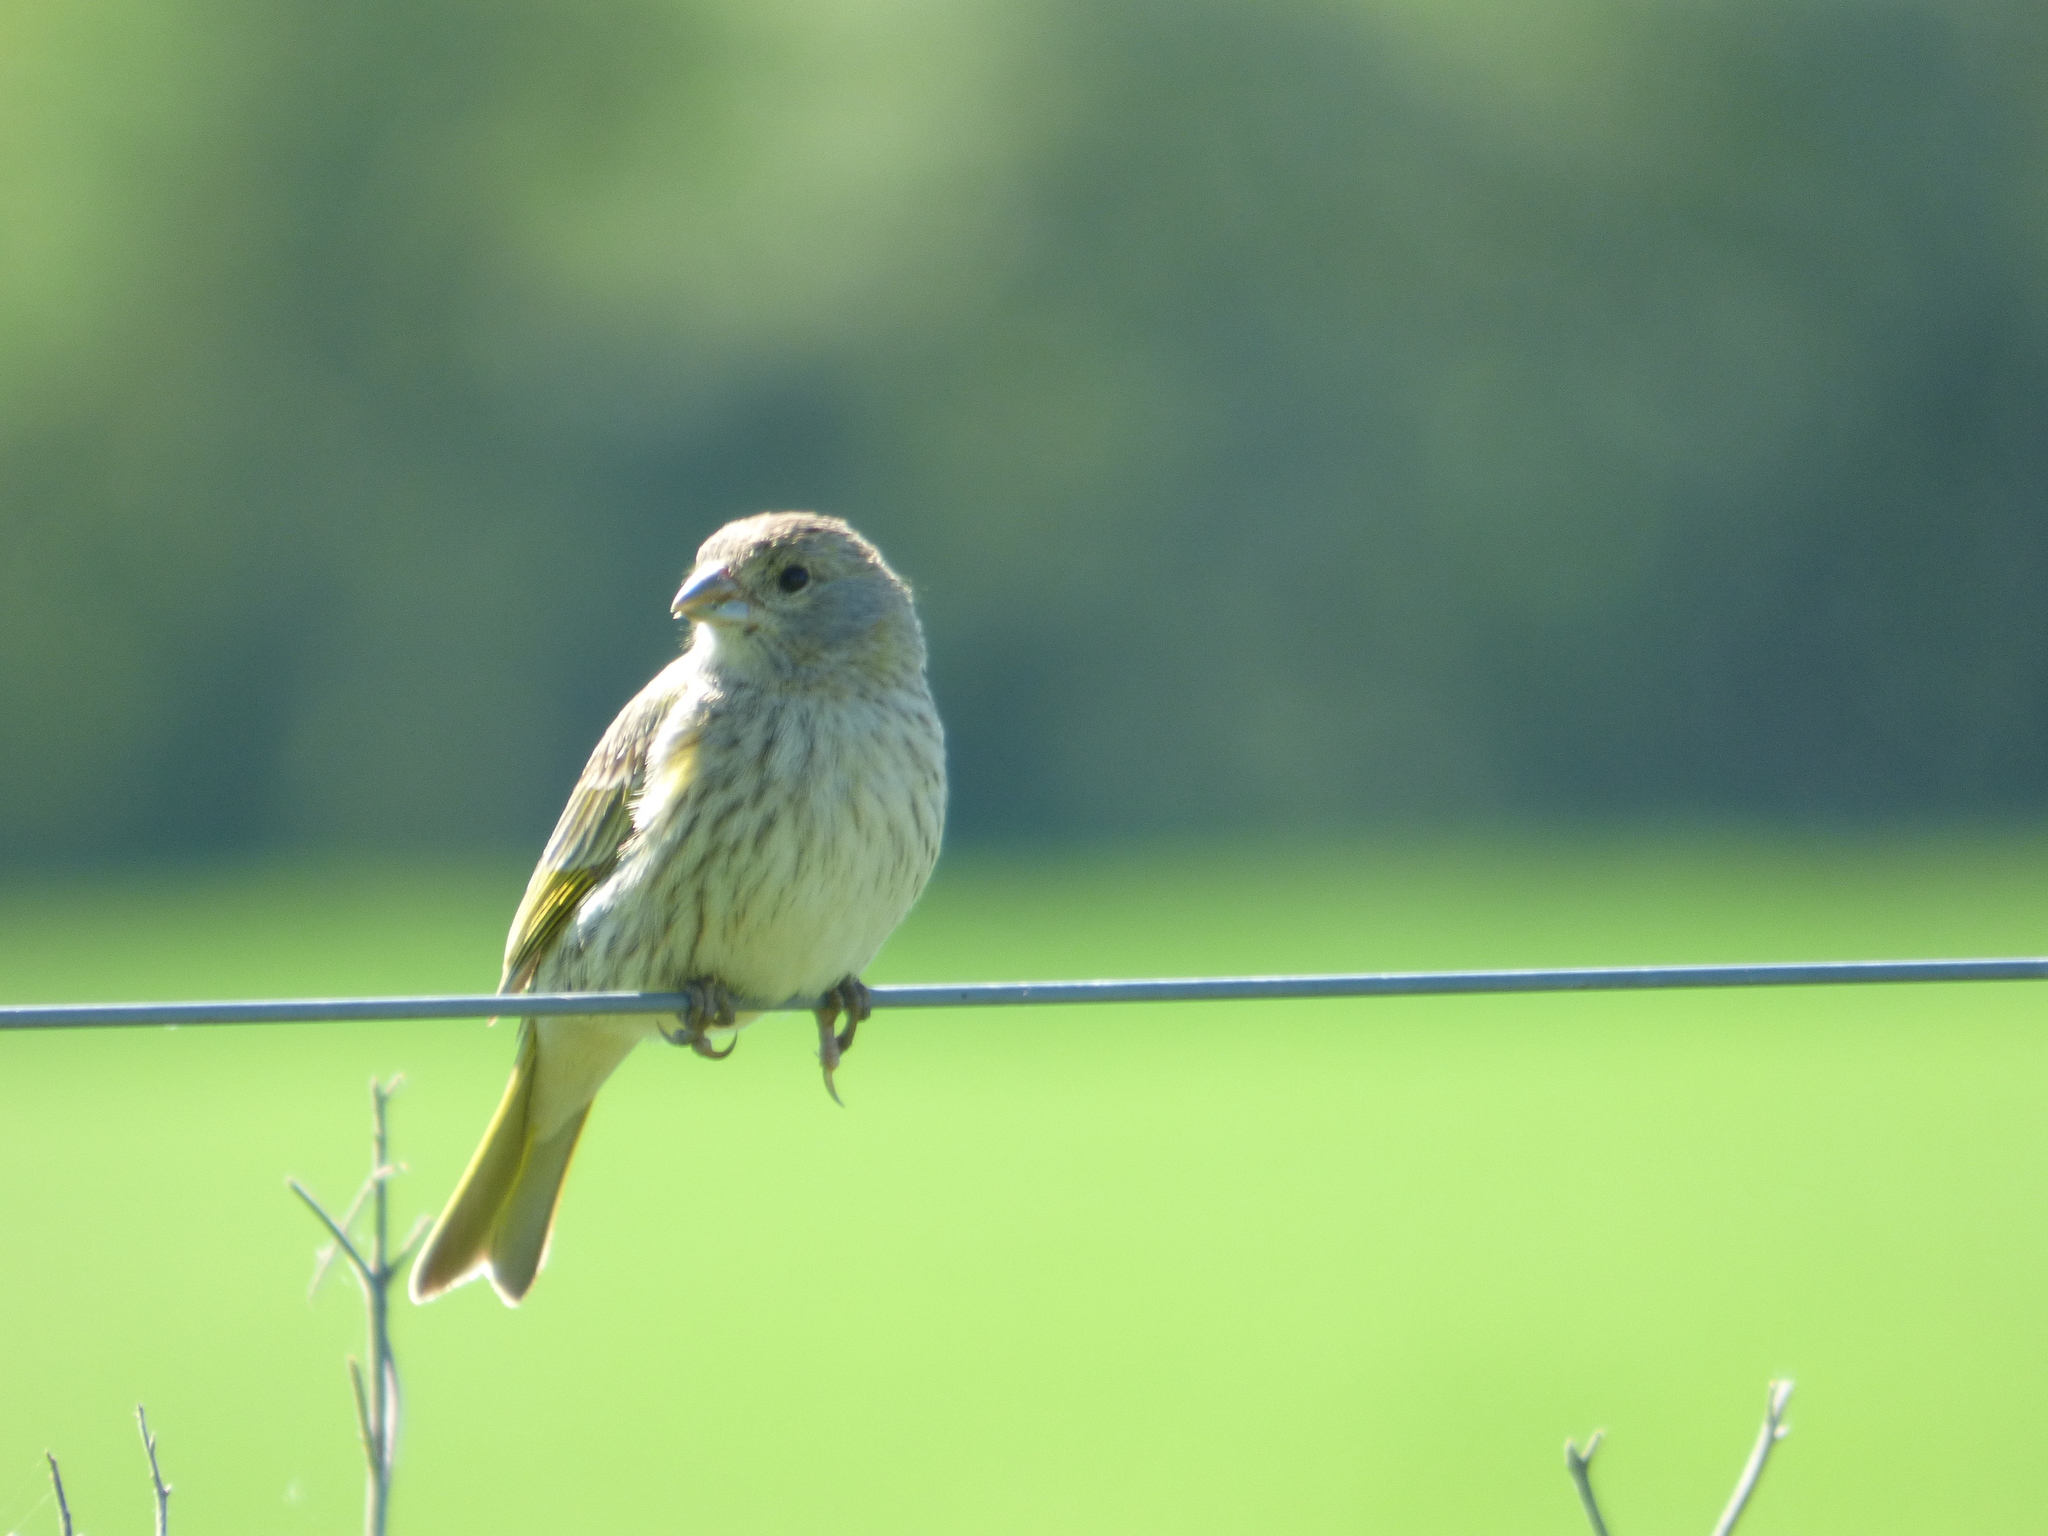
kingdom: Animalia
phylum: Chordata
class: Aves
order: Passeriformes
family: Thraupidae
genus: Sicalis
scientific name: Sicalis flaveola
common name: Saffron finch
